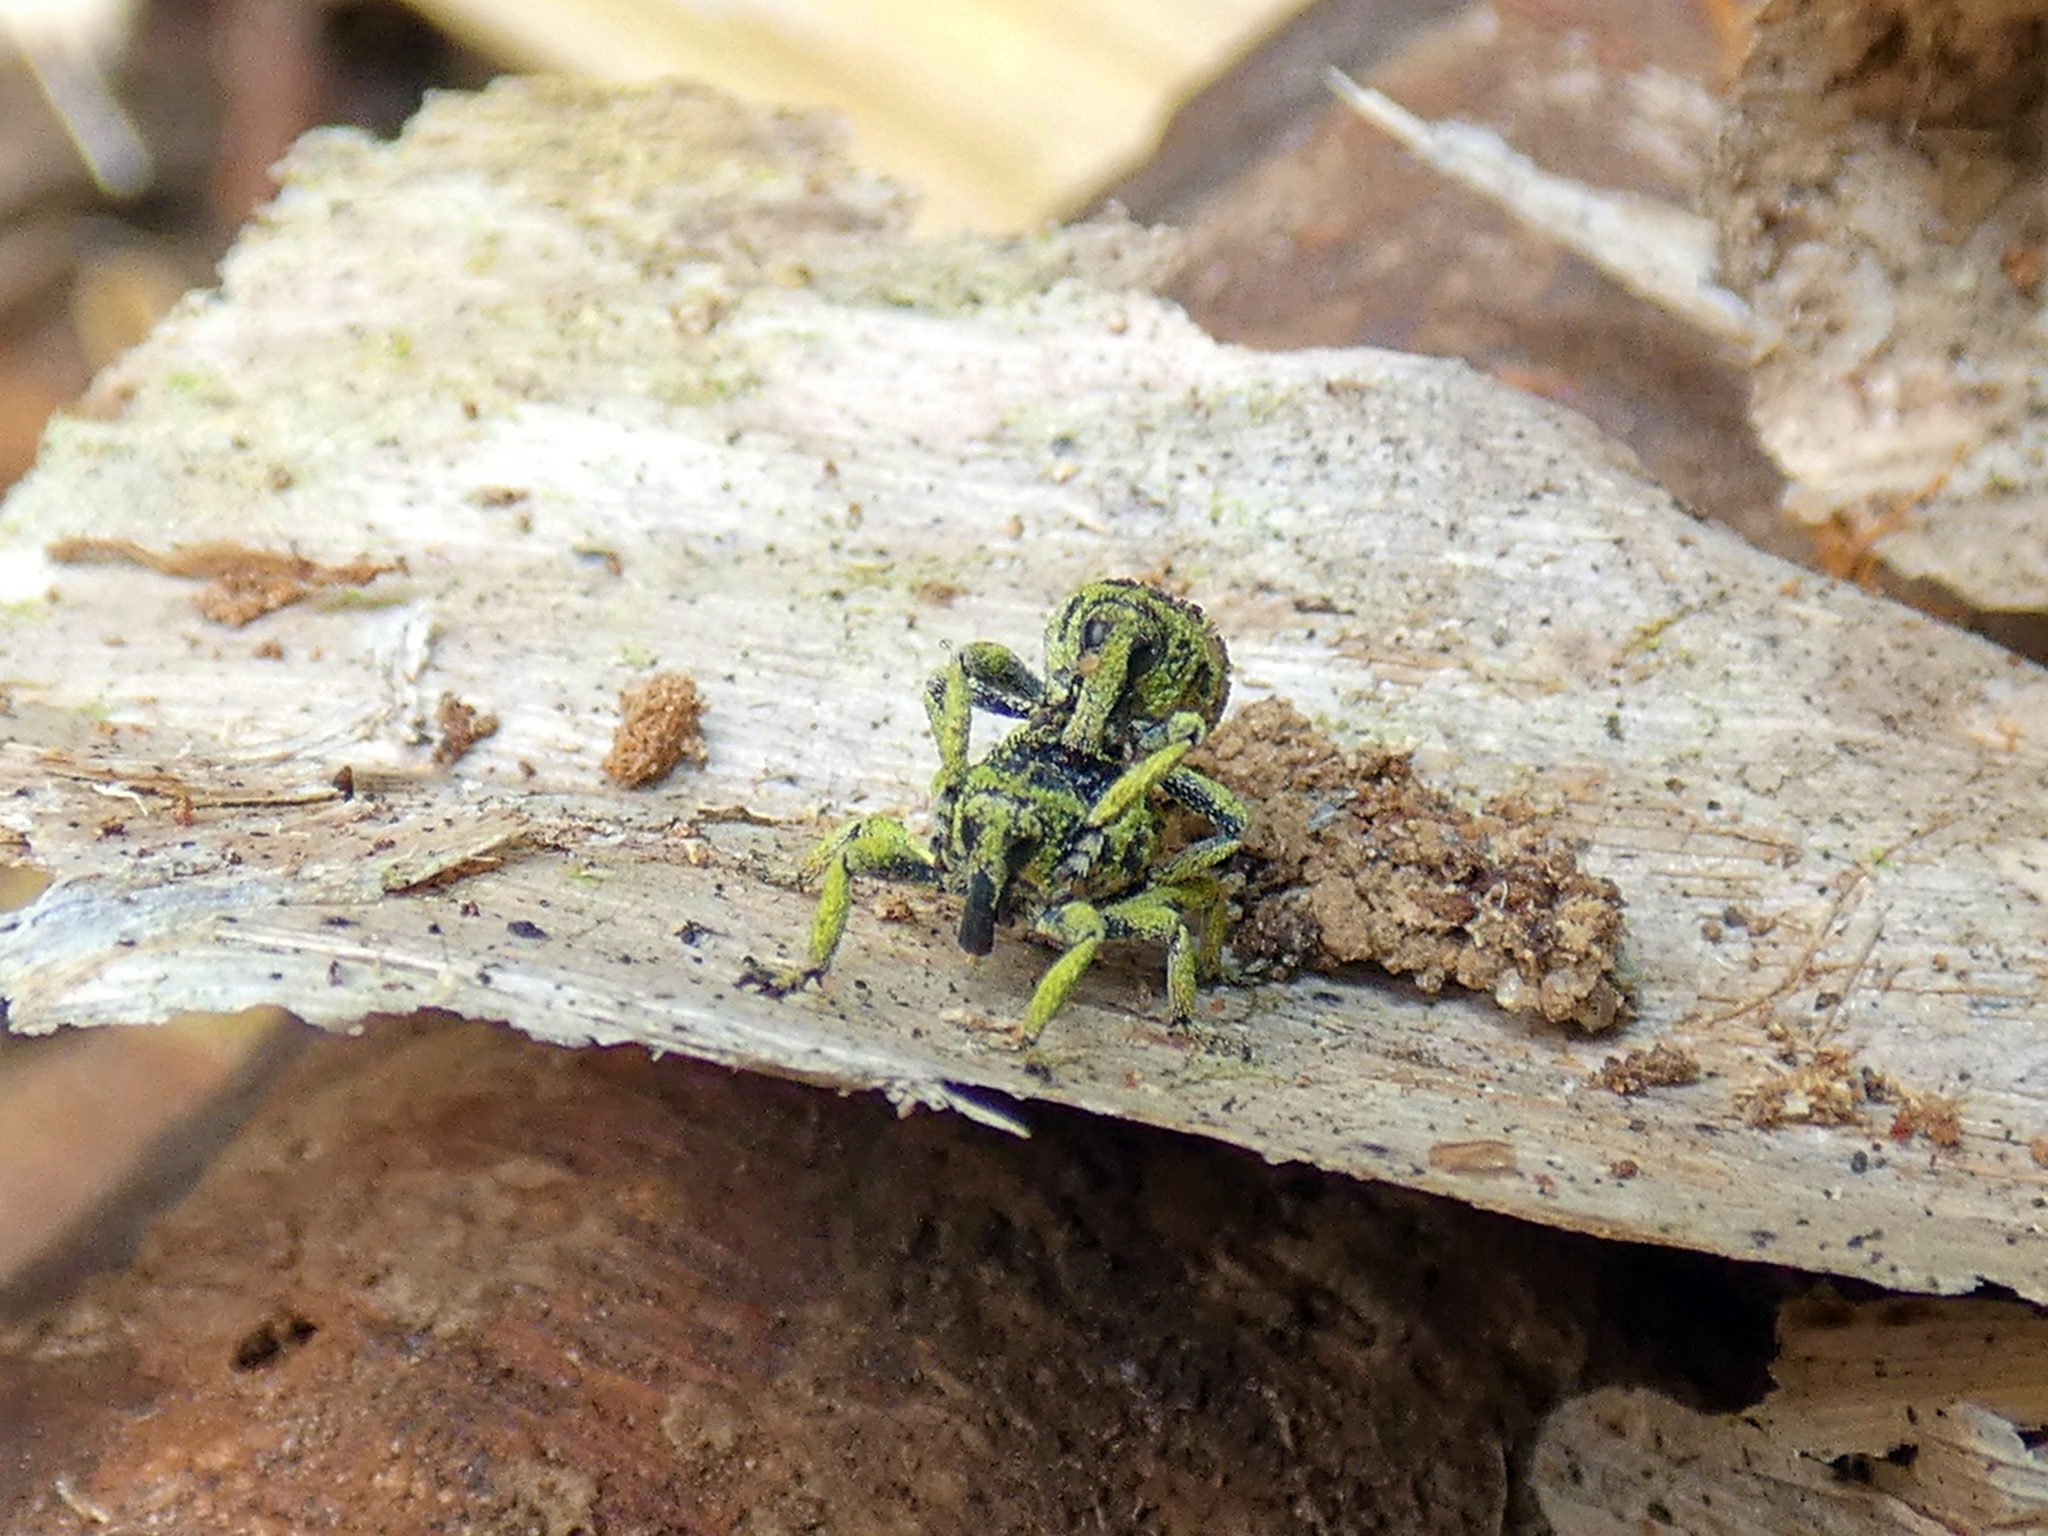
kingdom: Animalia
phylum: Arthropoda
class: Insecta
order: Coleoptera
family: Curculionidae
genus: Pteroporopterus
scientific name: Pteroporopterus lacunosus
